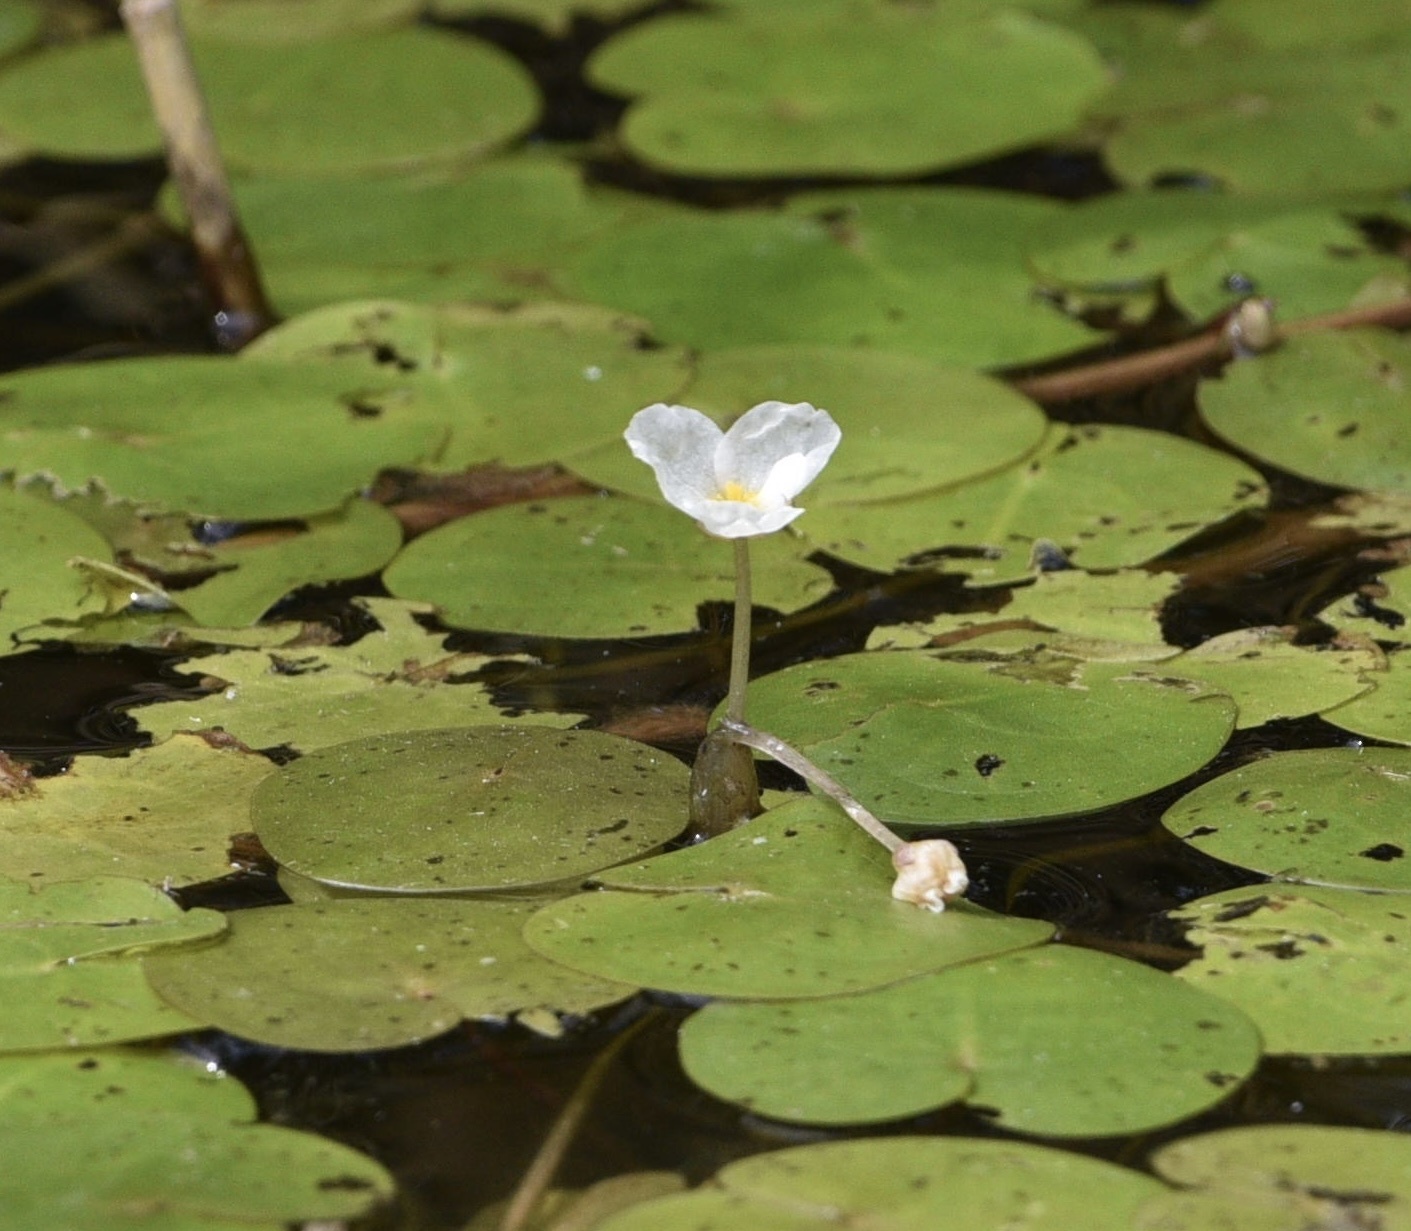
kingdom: Plantae
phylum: Tracheophyta
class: Liliopsida
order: Alismatales
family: Hydrocharitaceae
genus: Hydrocharis
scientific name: Hydrocharis morsus-ranae
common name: Frogbit
